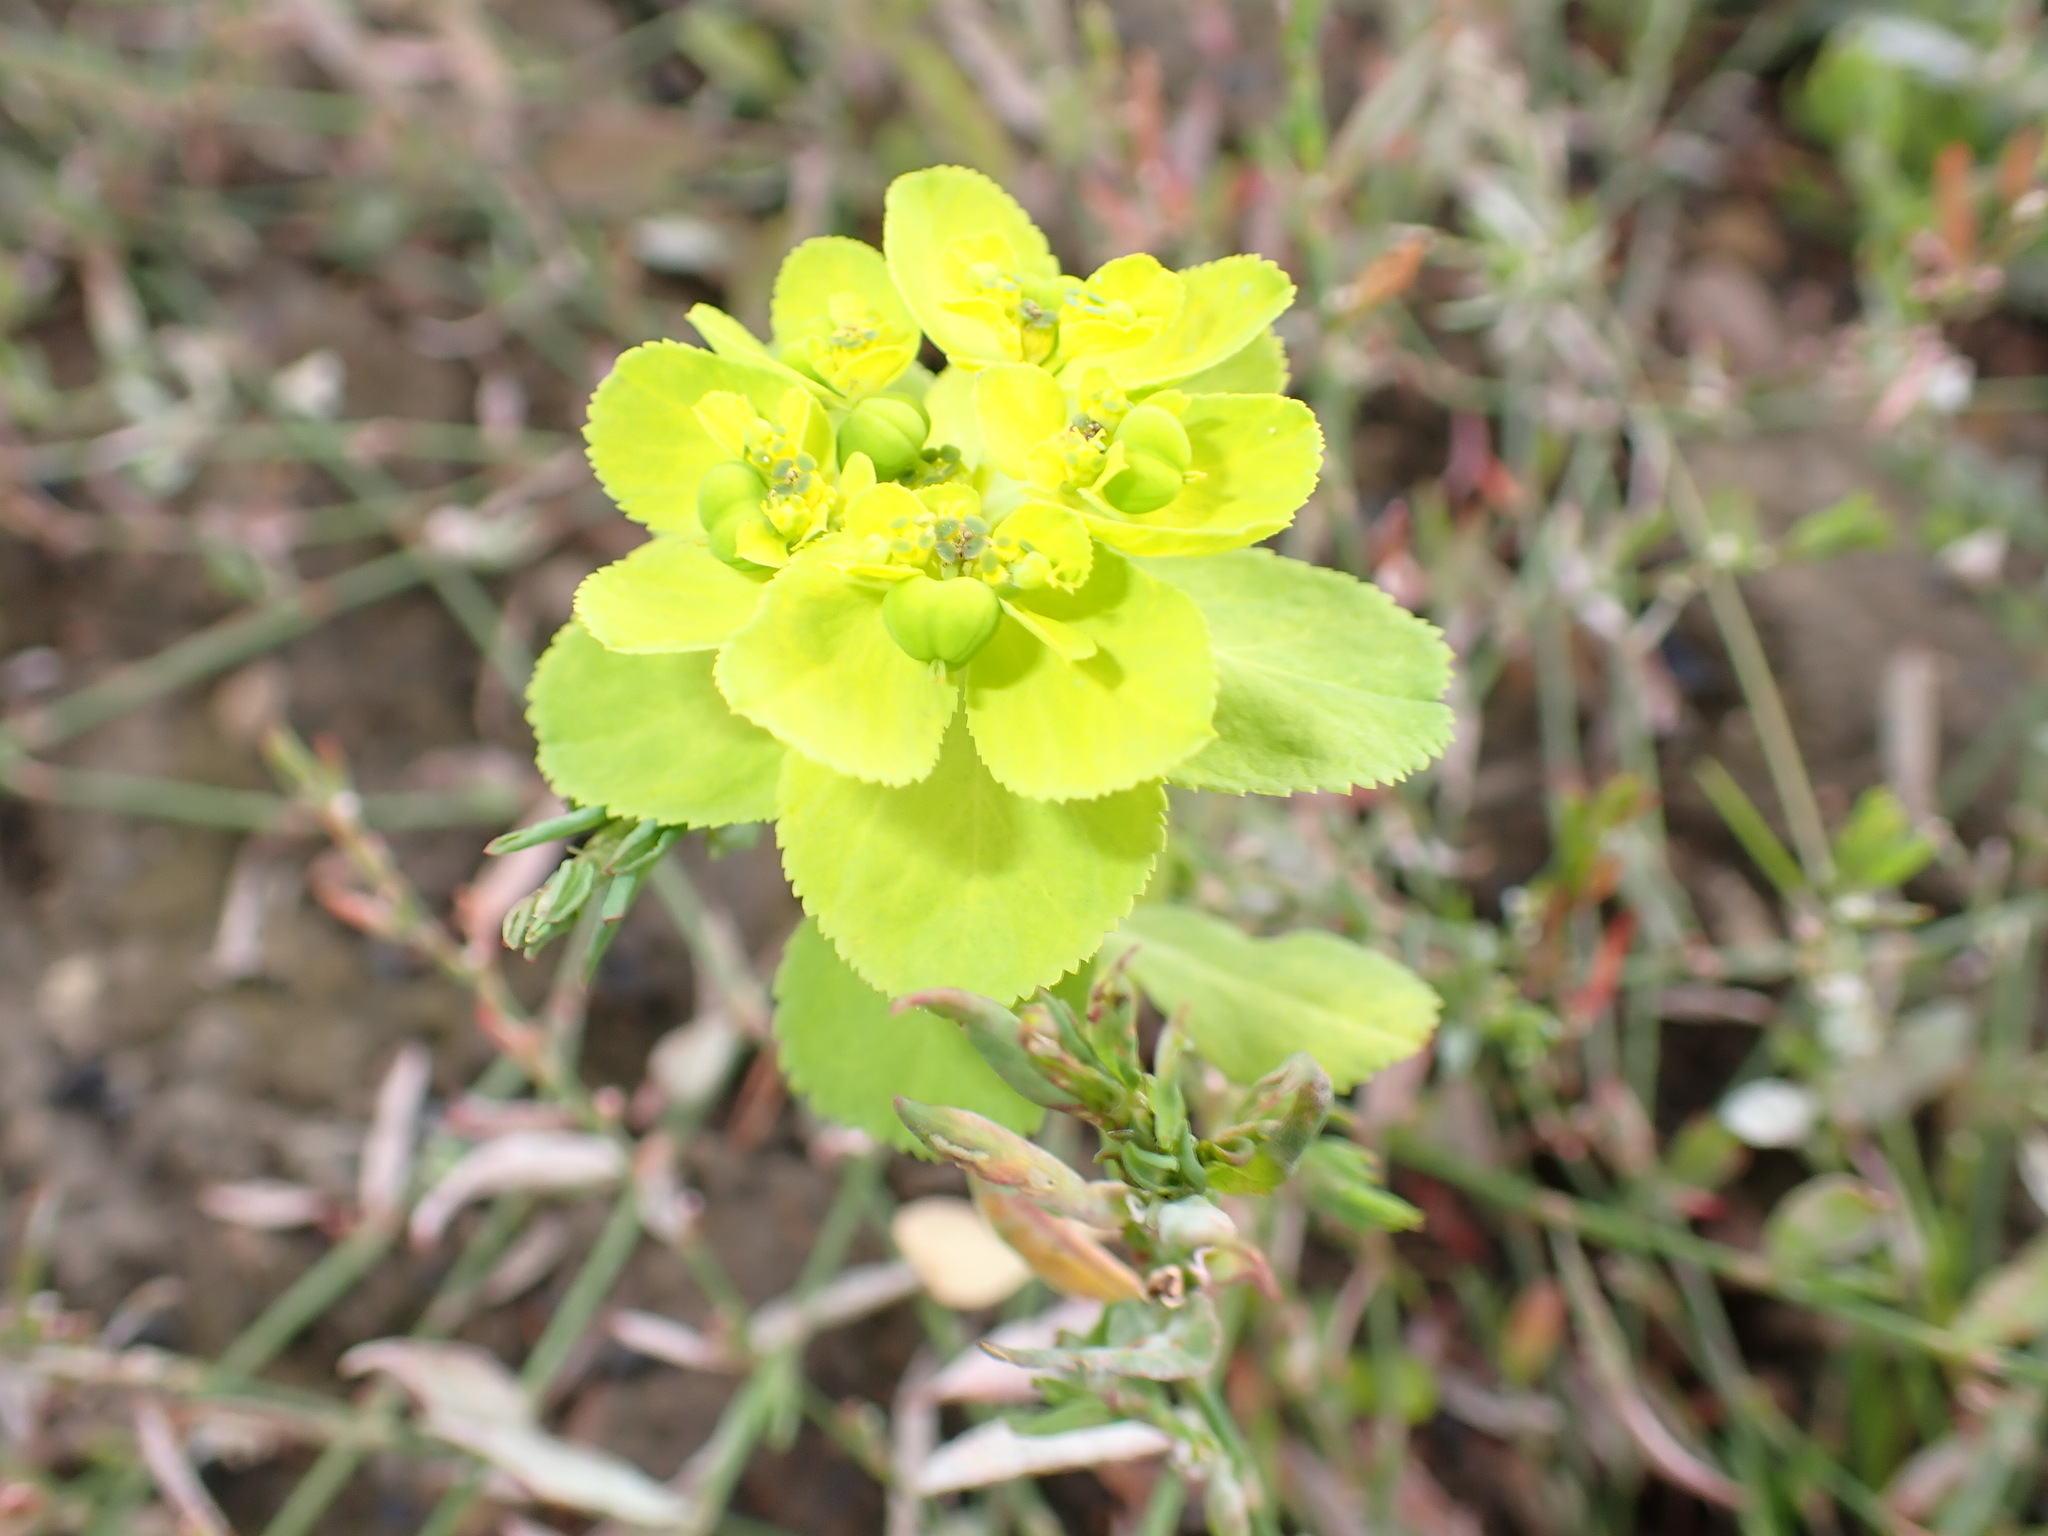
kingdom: Plantae
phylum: Tracheophyta
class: Magnoliopsida
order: Malpighiales
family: Euphorbiaceae
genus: Euphorbia
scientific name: Euphorbia helioscopia
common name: Sun spurge
